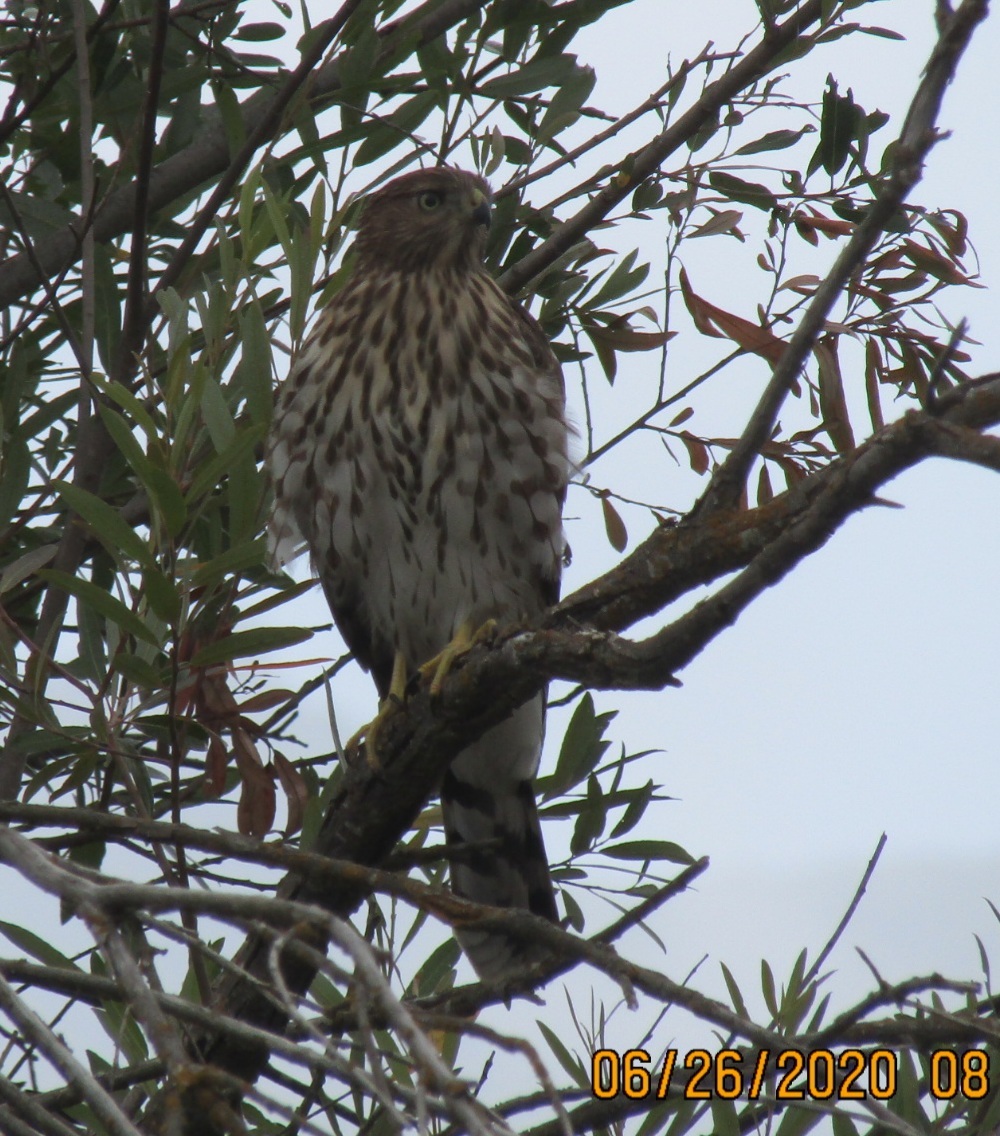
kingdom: Animalia
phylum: Chordata
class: Aves
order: Accipitriformes
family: Accipitridae
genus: Accipiter
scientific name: Accipiter cooperii
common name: Cooper's hawk
